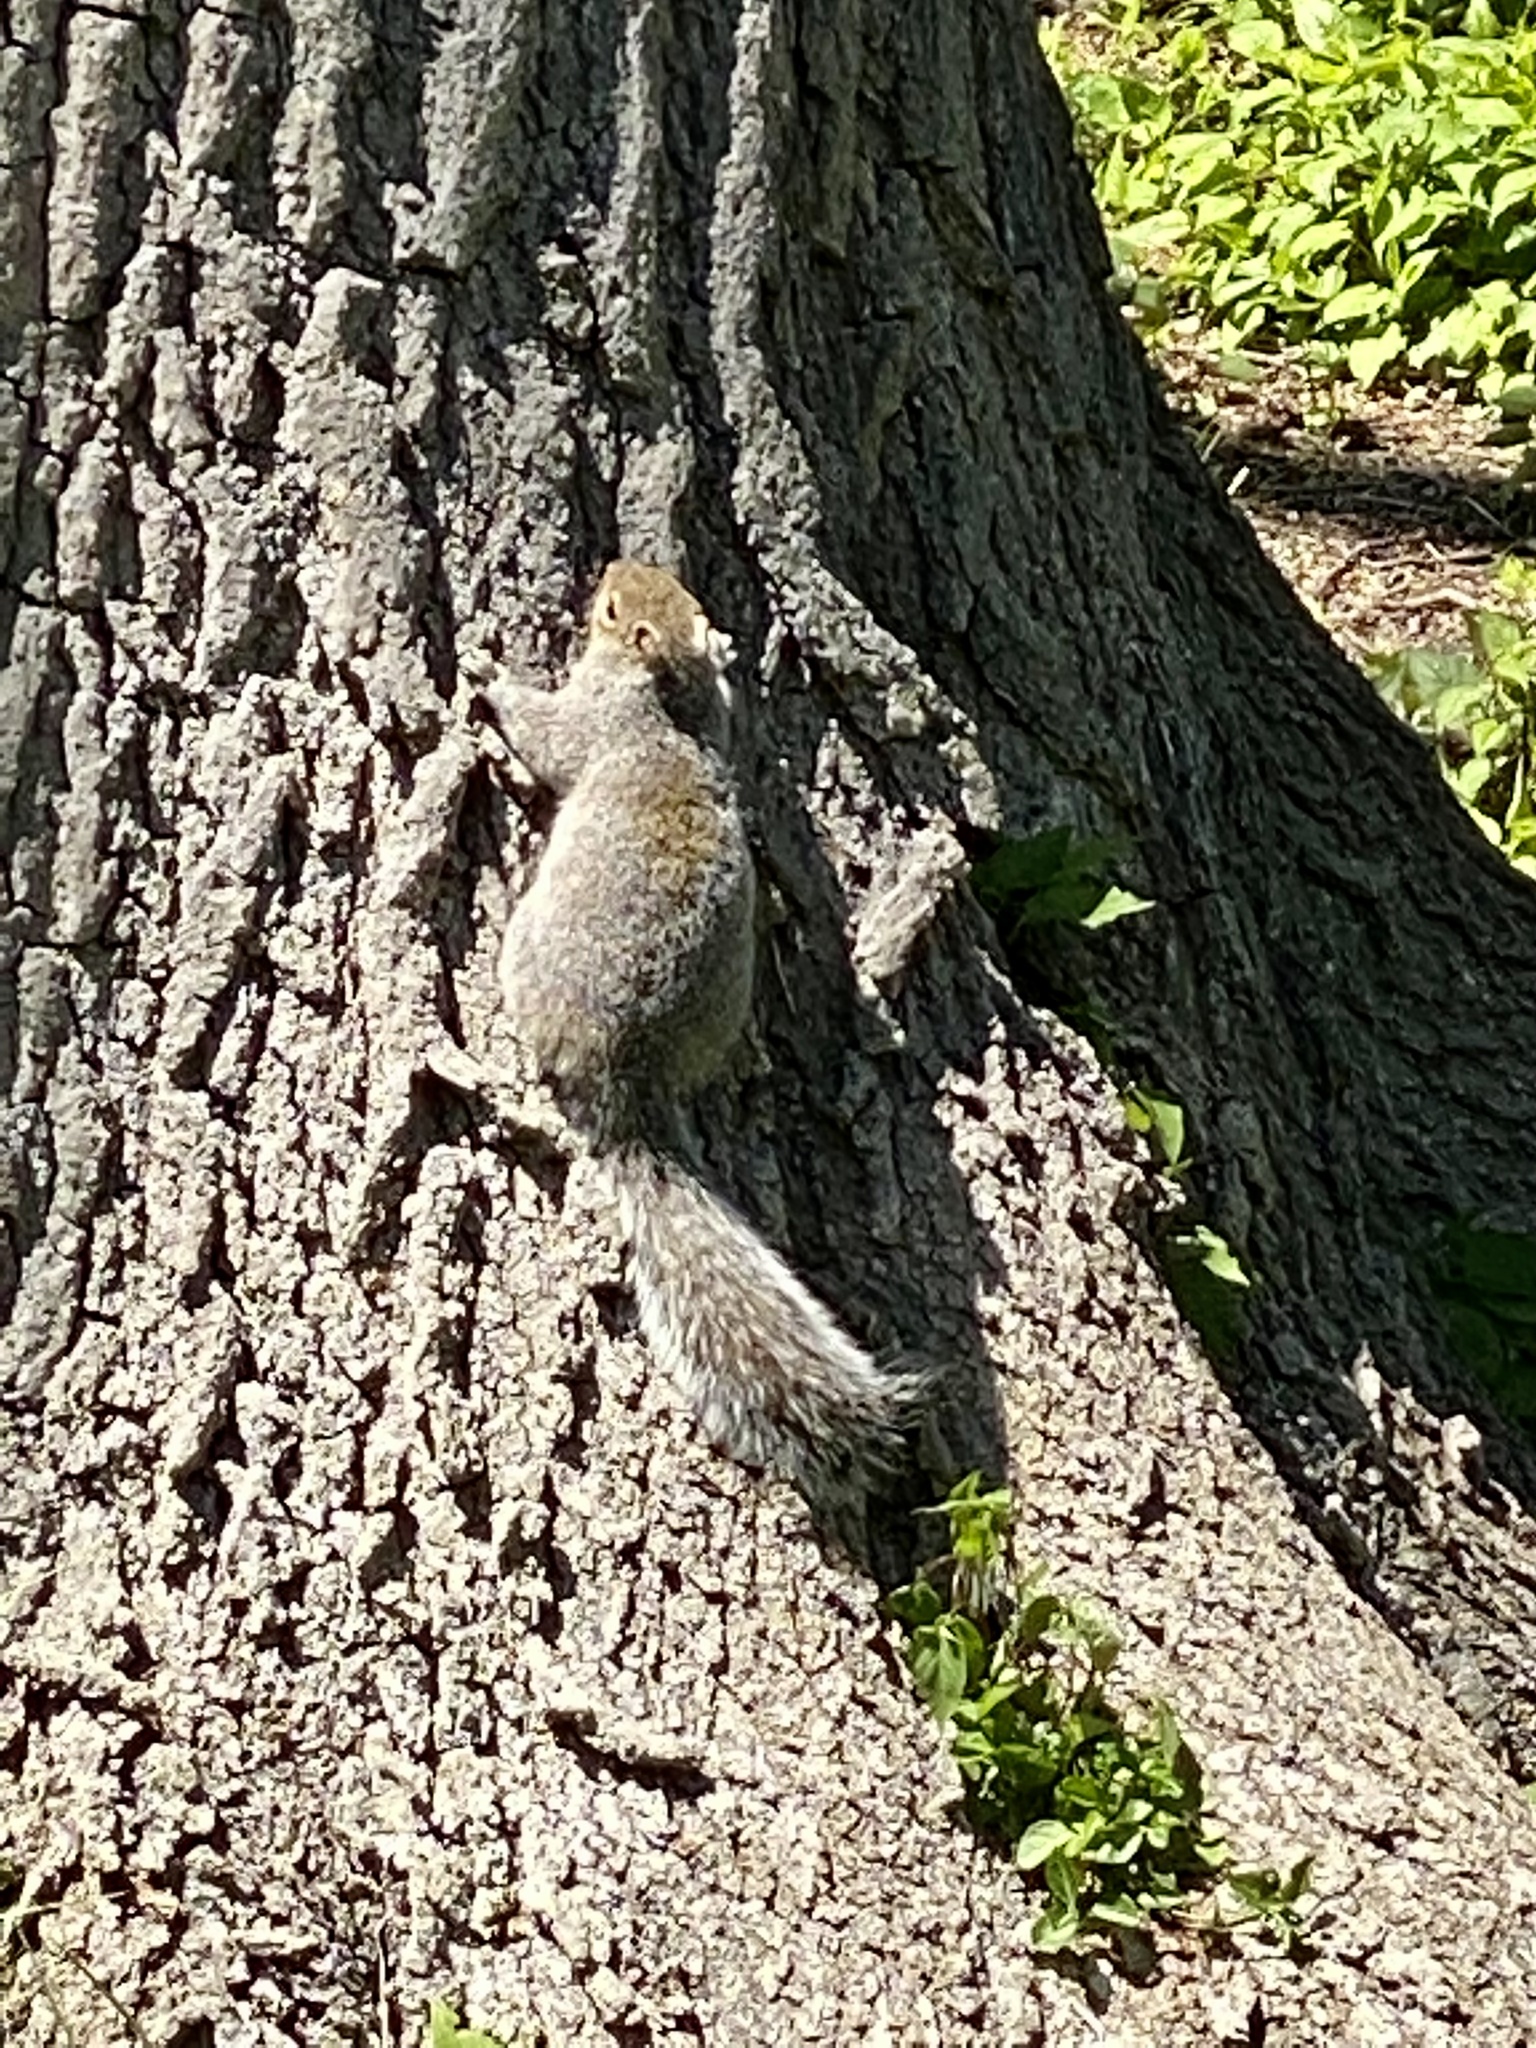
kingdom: Animalia
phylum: Chordata
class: Mammalia
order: Rodentia
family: Sciuridae
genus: Sciurus
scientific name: Sciurus carolinensis
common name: Eastern gray squirrel
